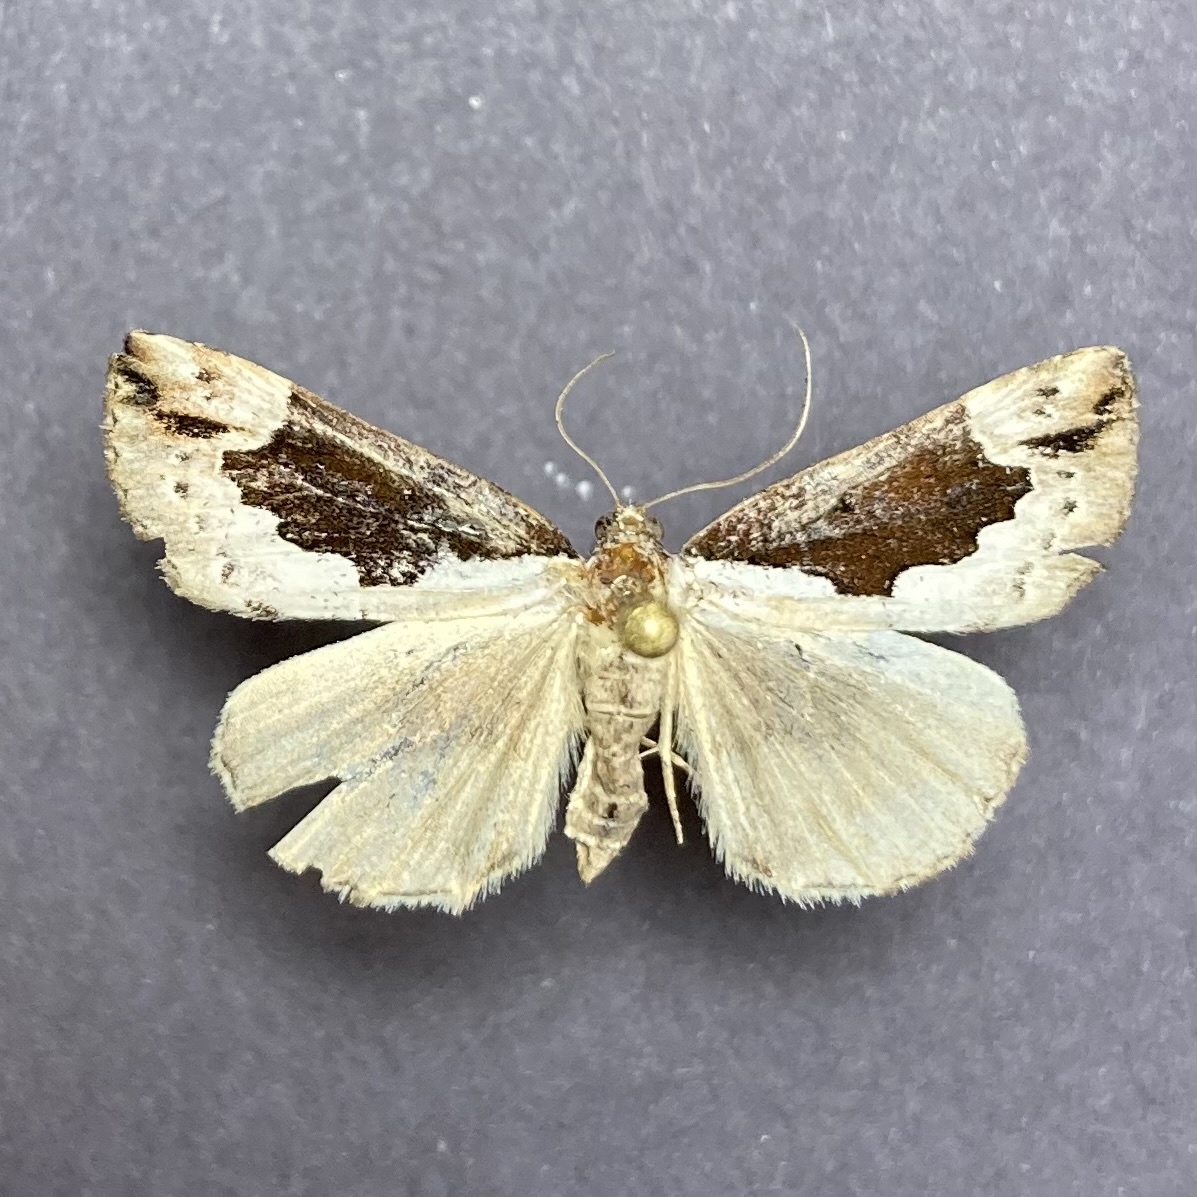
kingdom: Animalia
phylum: Arthropoda
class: Insecta
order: Lepidoptera
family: Erebidae
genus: Hypena
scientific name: Hypena baltimoralis
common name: Baltimore snout
